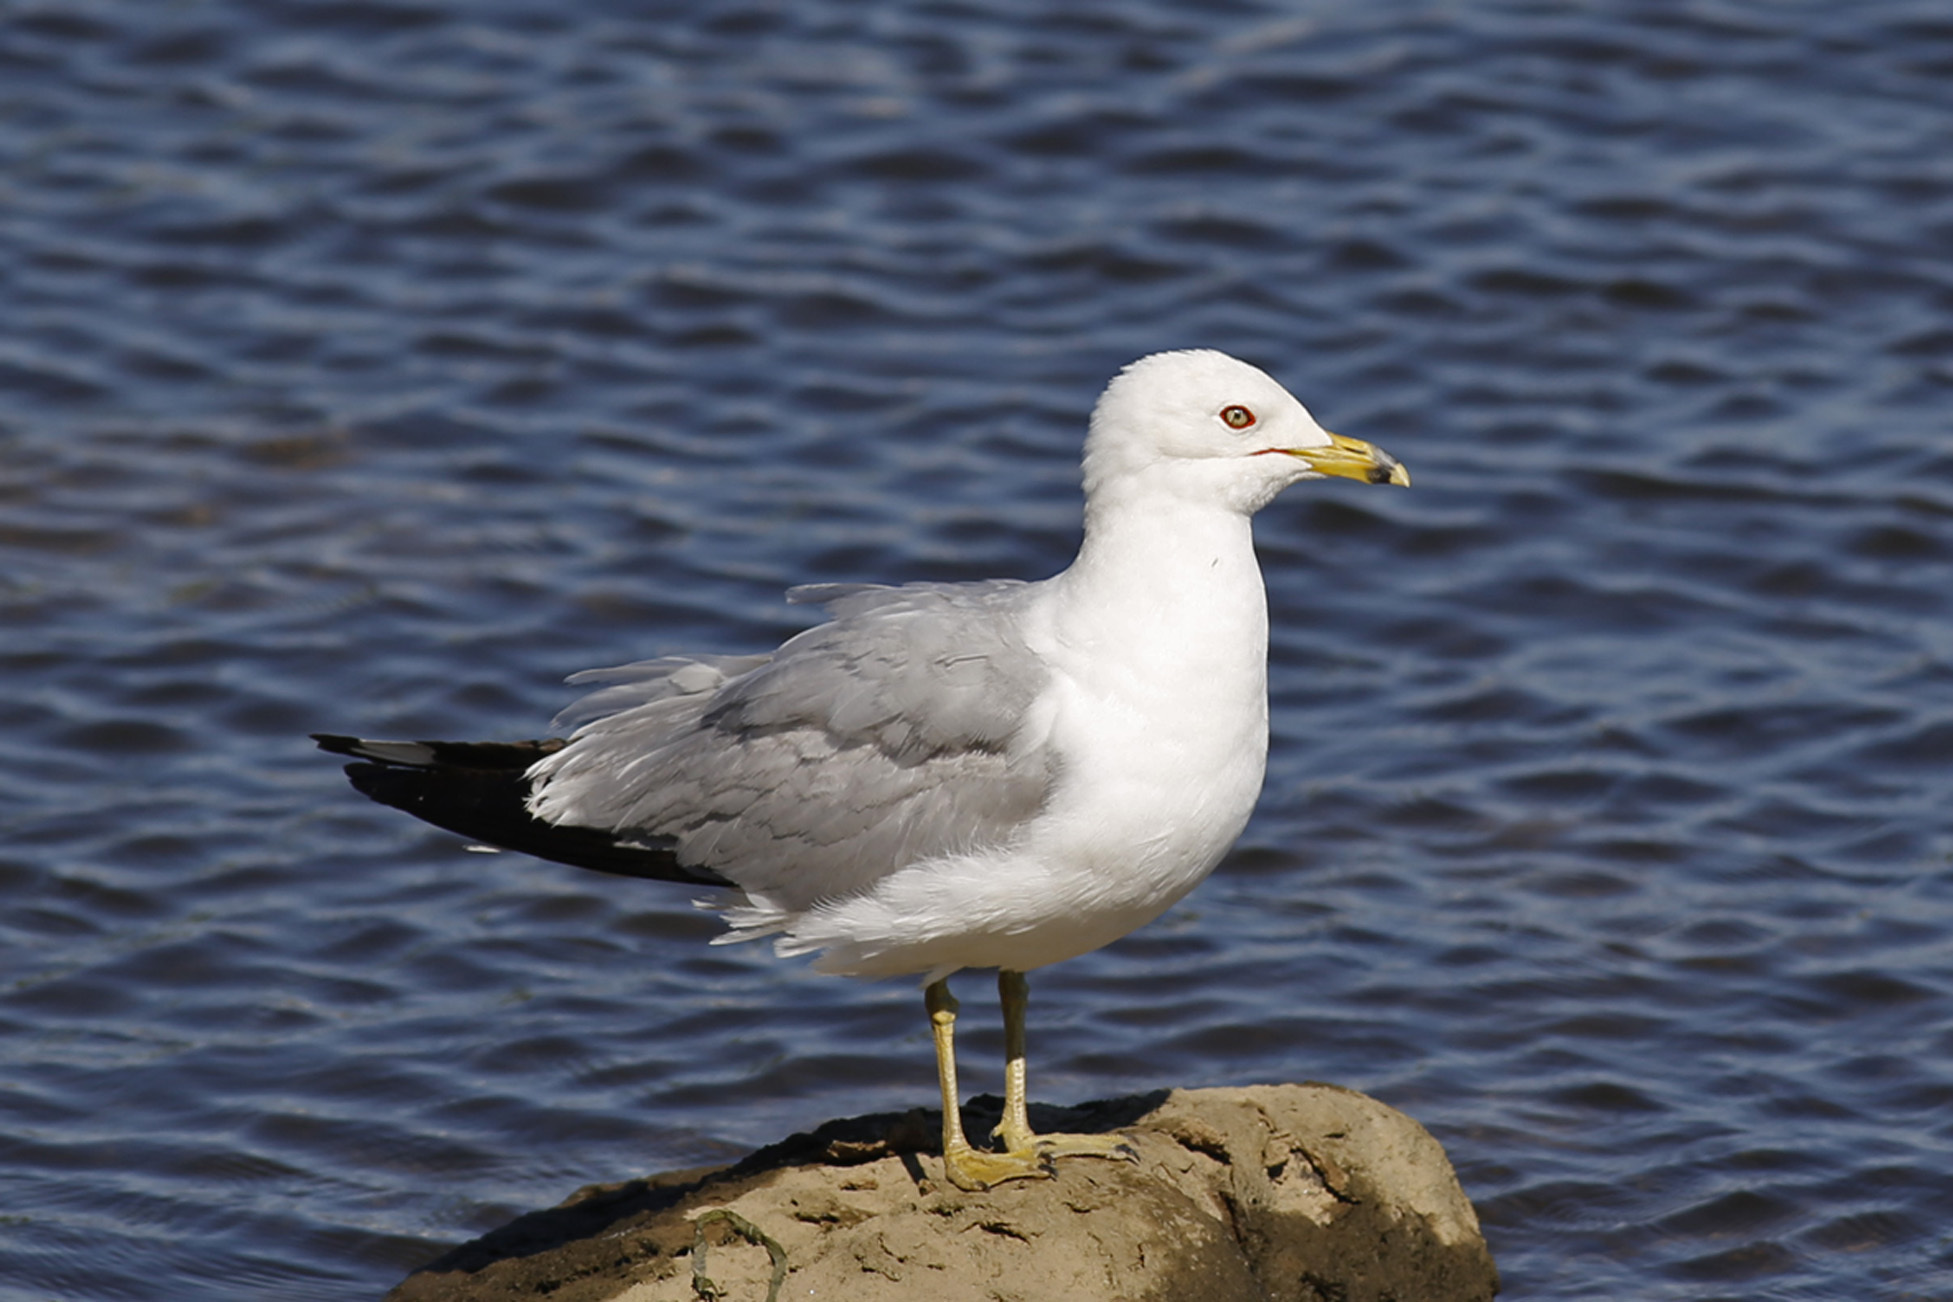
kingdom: Animalia
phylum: Chordata
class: Aves
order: Charadriiformes
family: Laridae
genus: Larus
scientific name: Larus delawarensis
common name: Ring-billed gull
